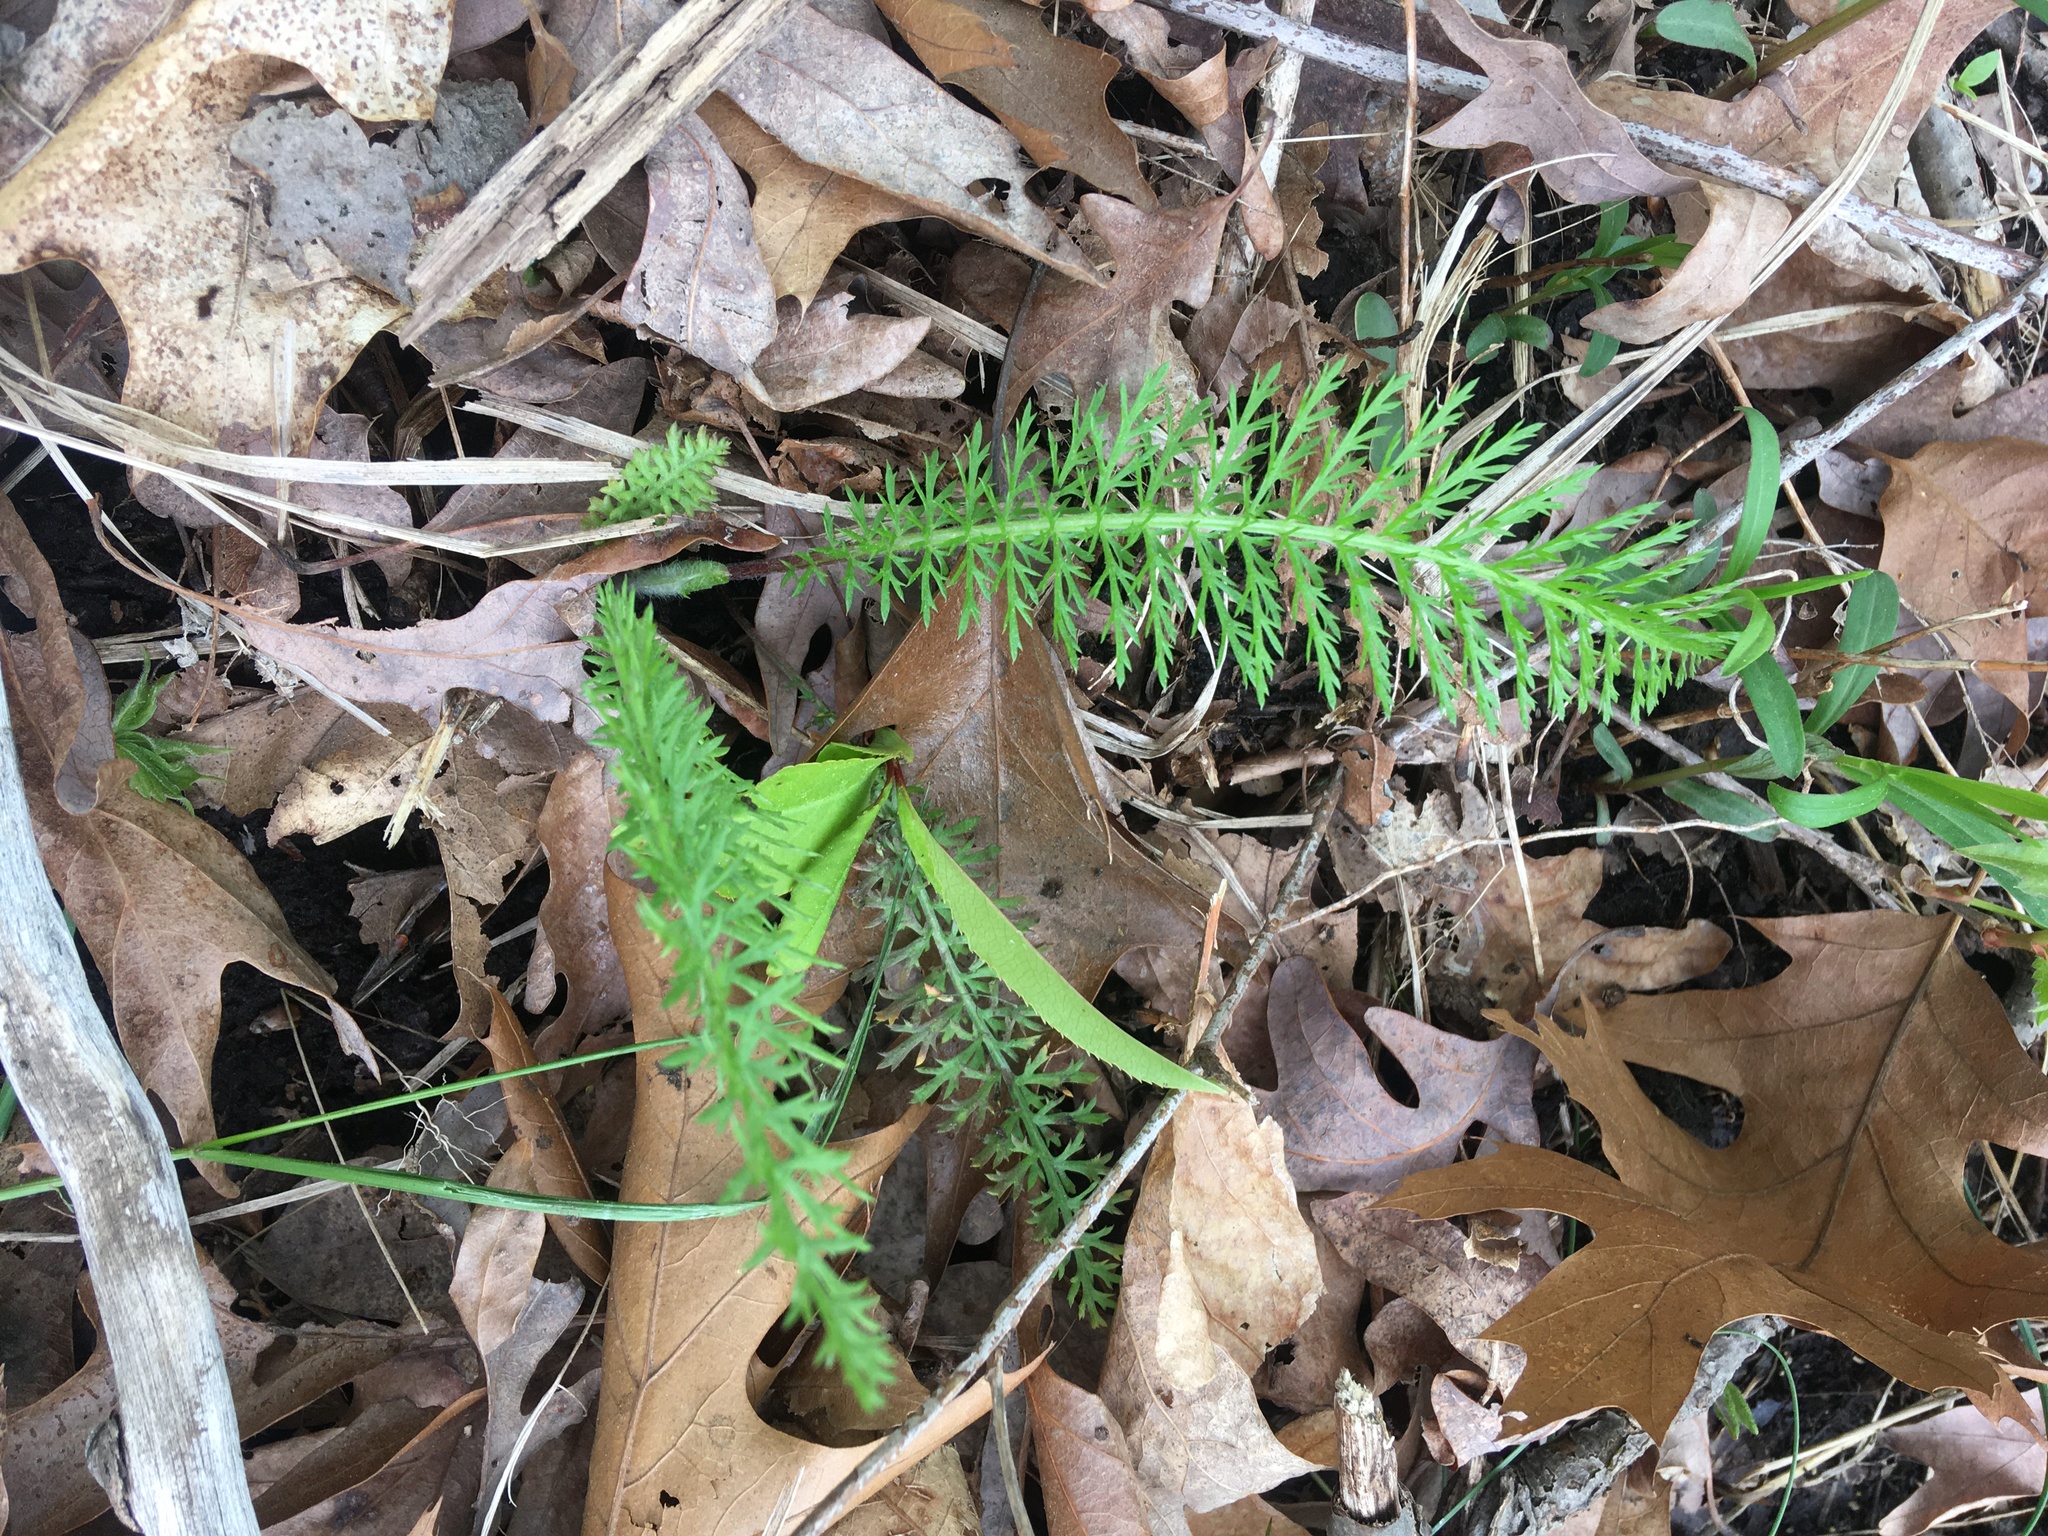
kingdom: Plantae
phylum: Tracheophyta
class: Magnoliopsida
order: Asterales
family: Asteraceae
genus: Achillea
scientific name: Achillea millefolium
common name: Yarrow
